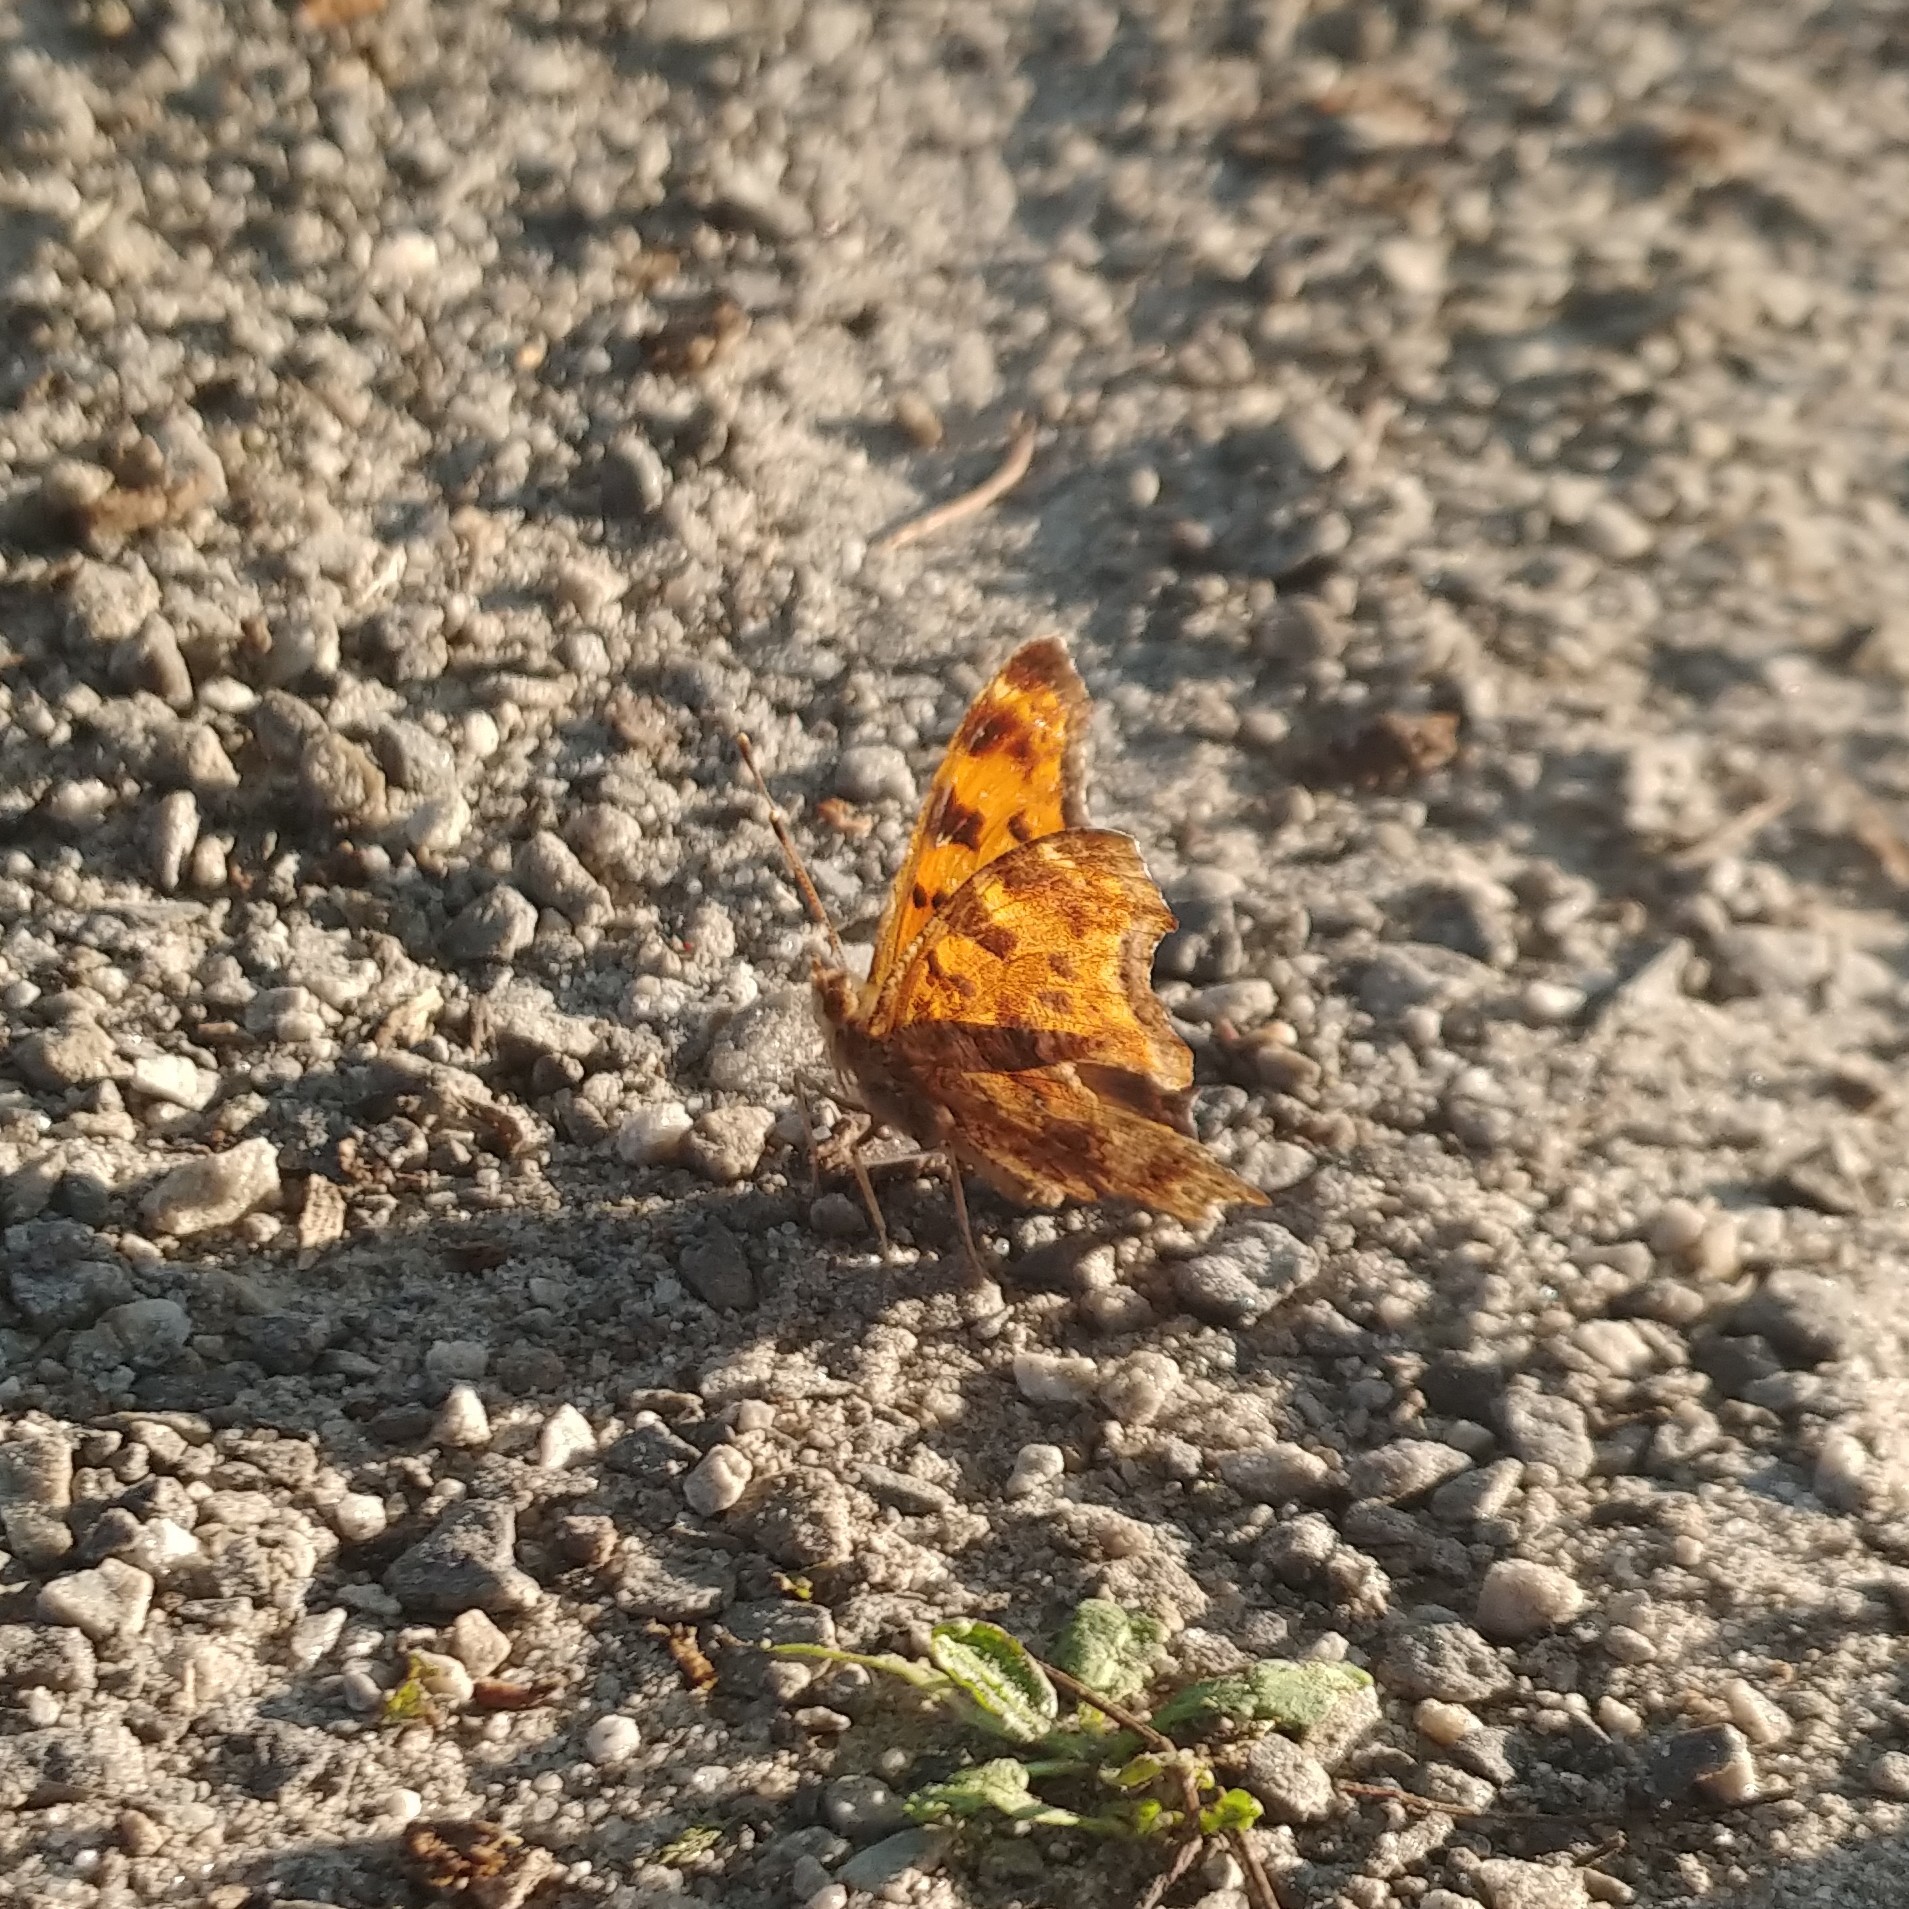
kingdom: Animalia
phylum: Arthropoda
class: Insecta
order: Lepidoptera
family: Nymphalidae
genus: Polygonia
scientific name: Polygonia comma
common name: Eastern comma
